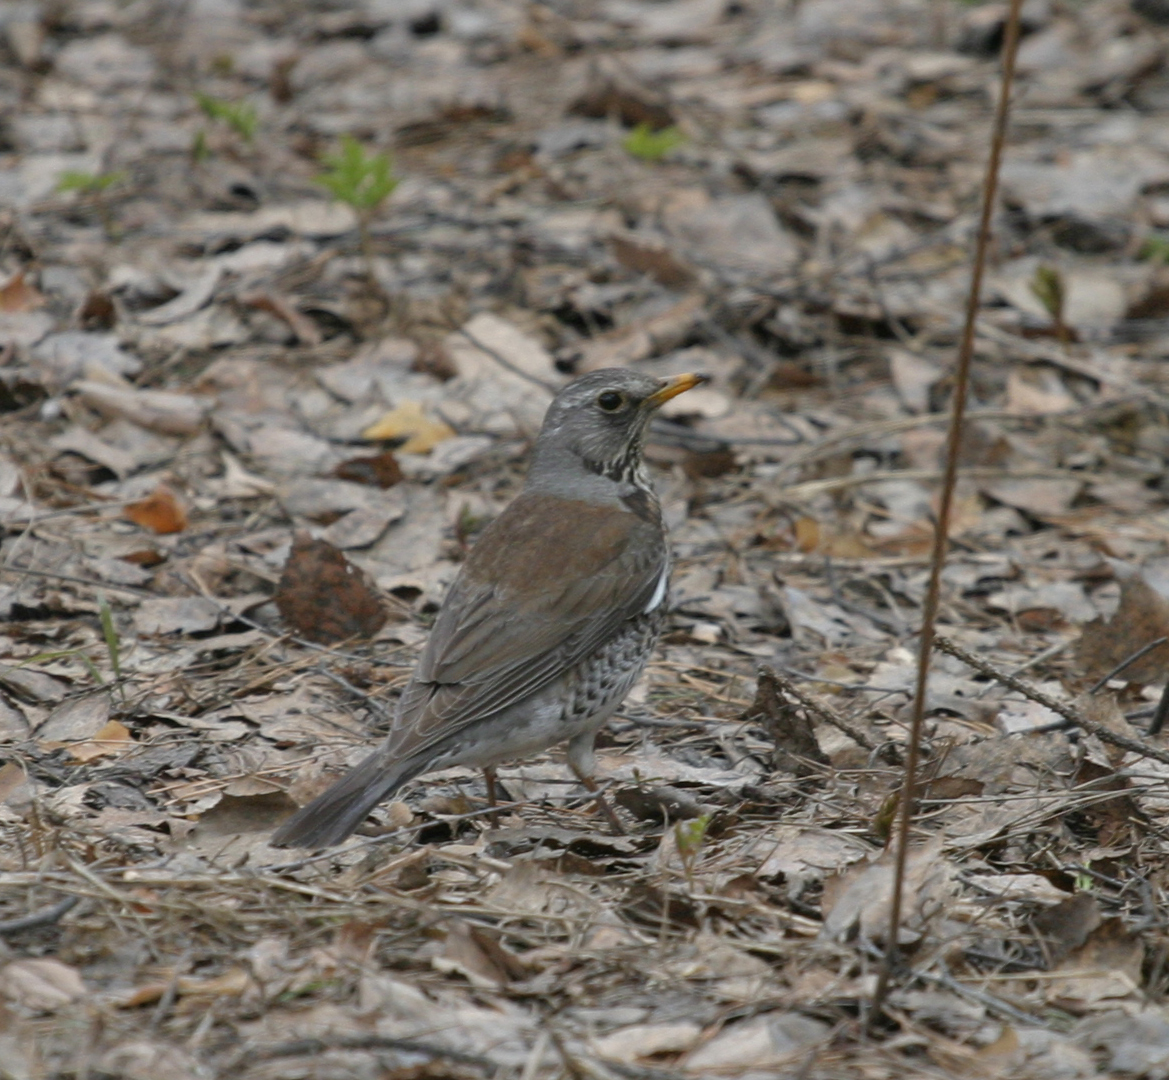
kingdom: Animalia
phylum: Chordata
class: Aves
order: Passeriformes
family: Turdidae
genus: Turdus
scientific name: Turdus pilaris
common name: Fieldfare
